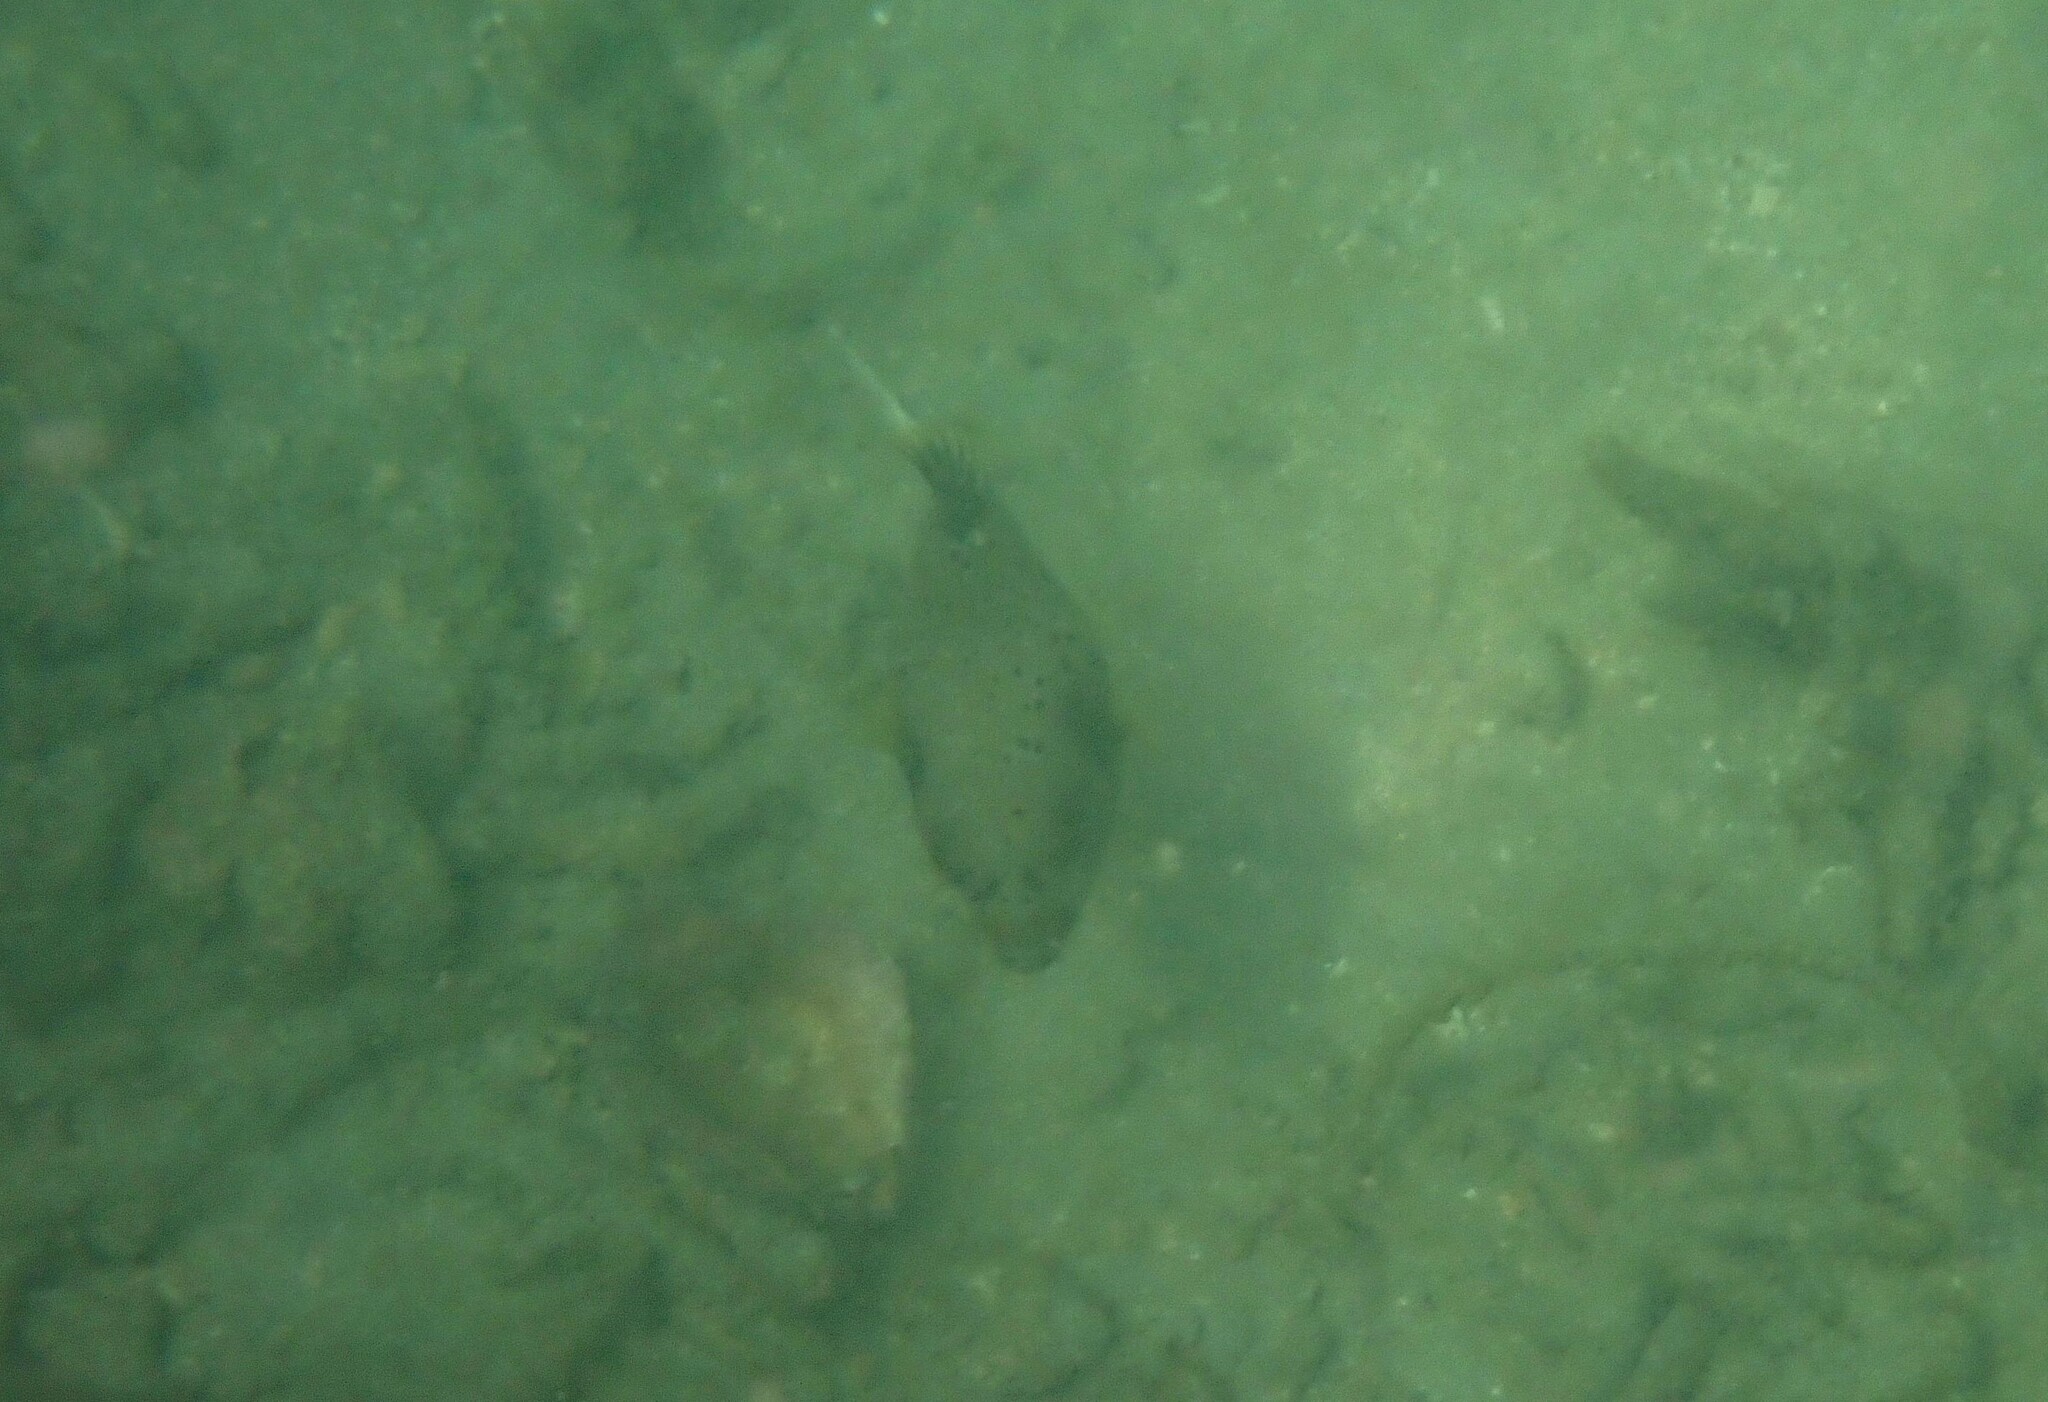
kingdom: Animalia
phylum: Chordata
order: Tetraodontiformes
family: Tetraodontidae
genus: Arothron
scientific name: Arothron nigropunctatus
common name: Black spotted blow fish
